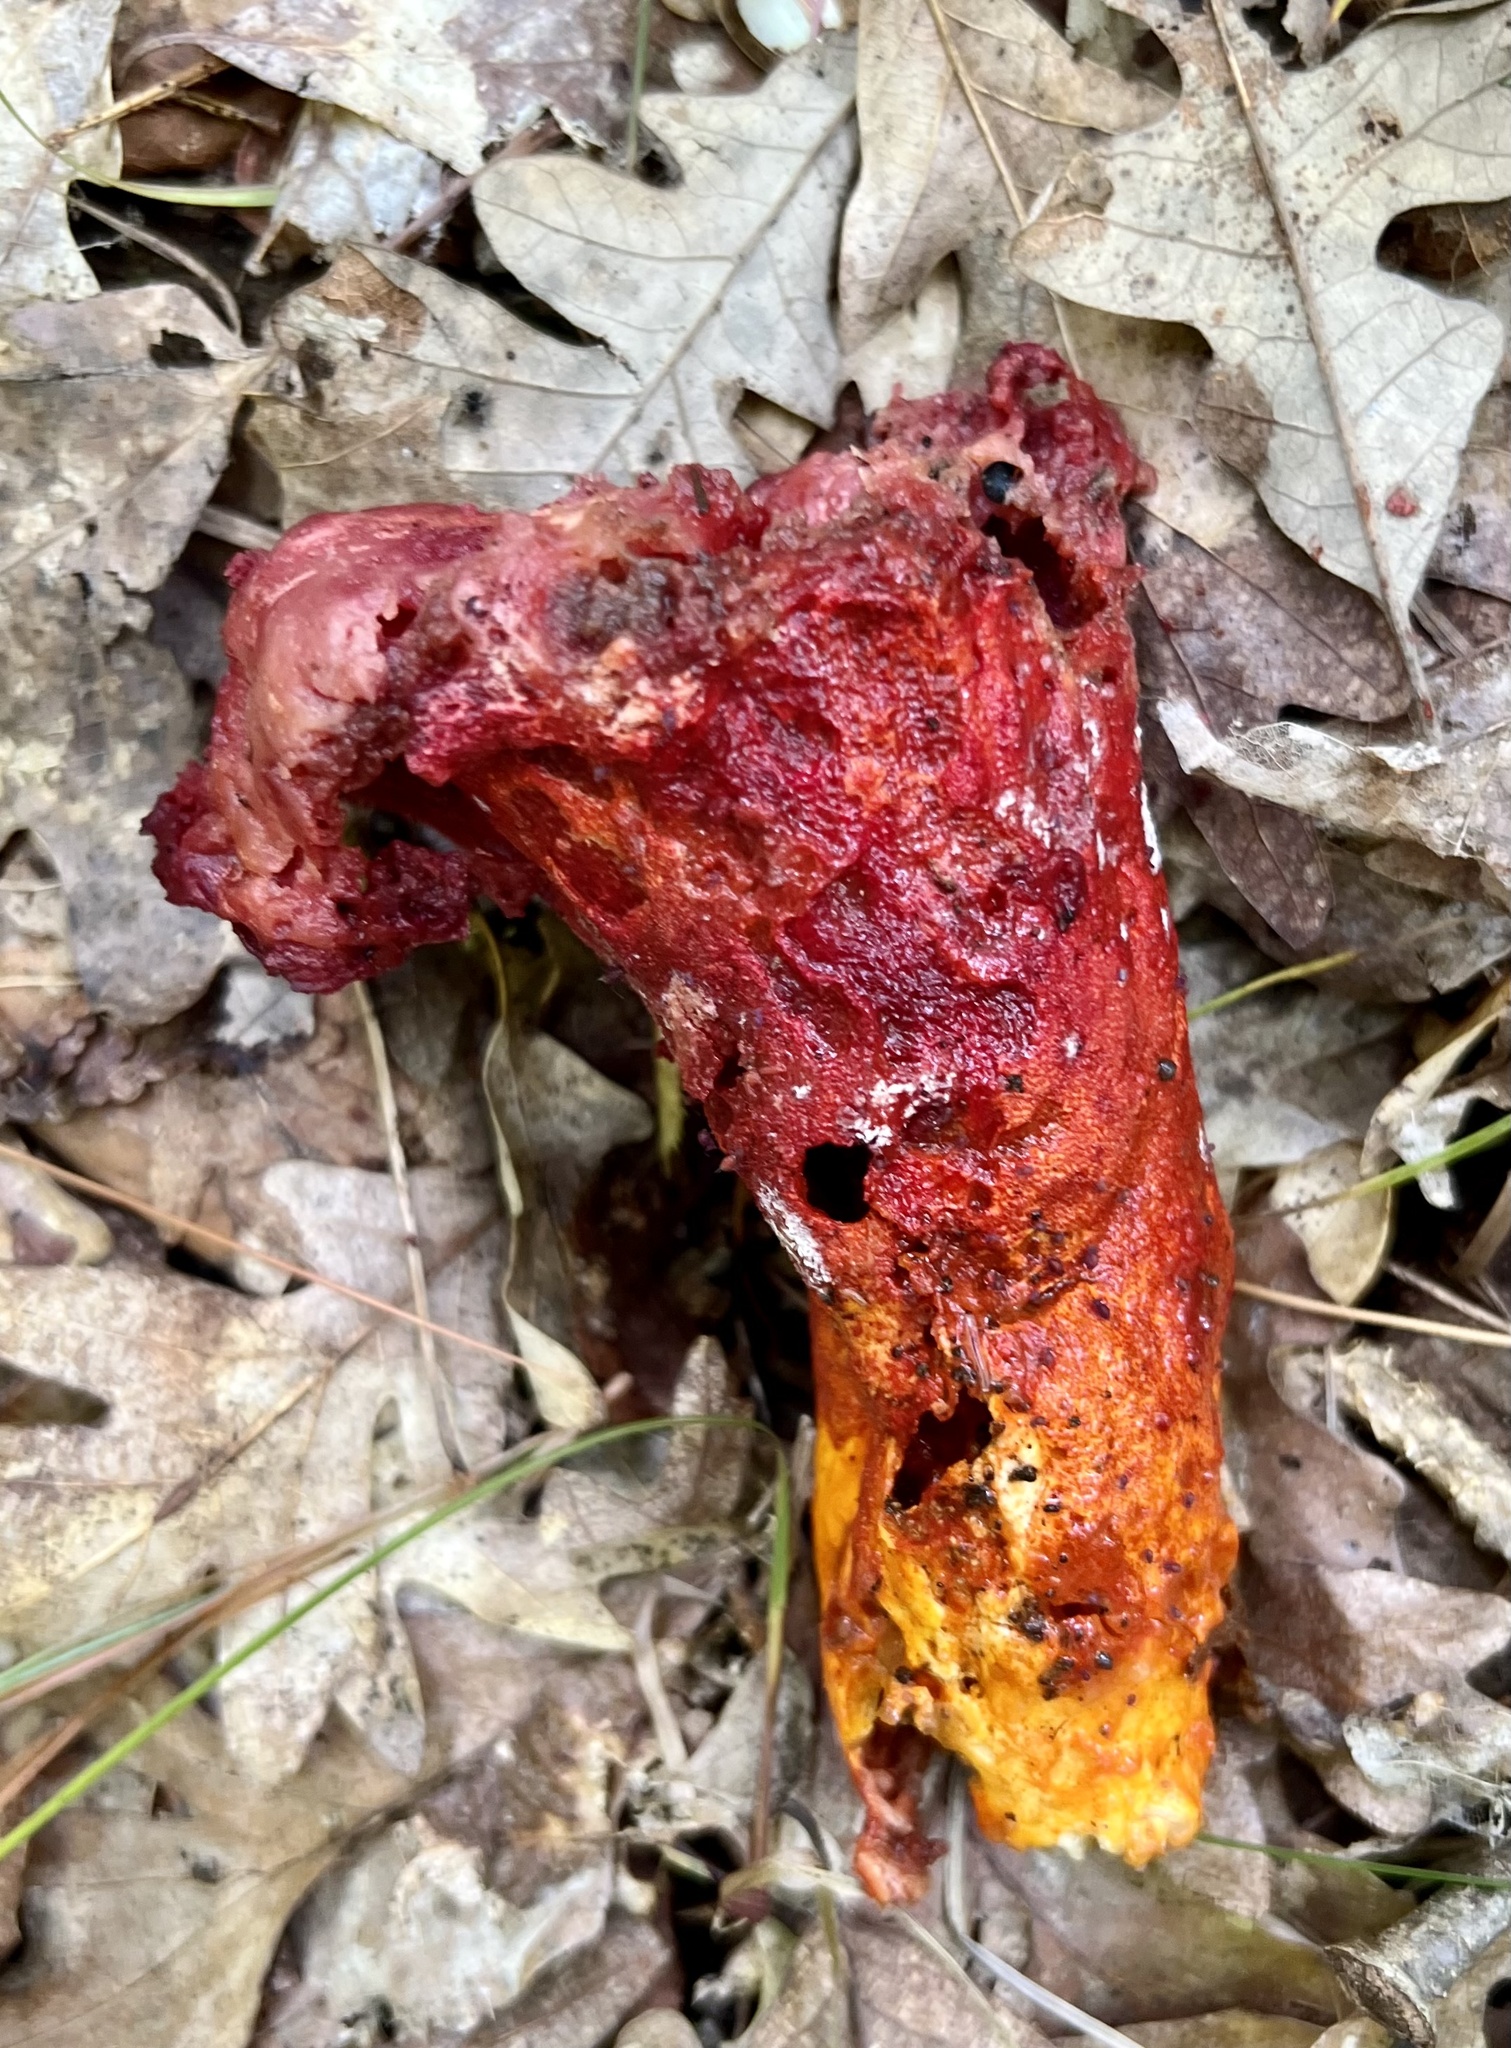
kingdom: Fungi
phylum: Ascomycota
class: Sordariomycetes
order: Hypocreales
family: Hypocreaceae
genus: Hypomyces
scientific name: Hypomyces lactifluorum
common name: Lobster mushroom
